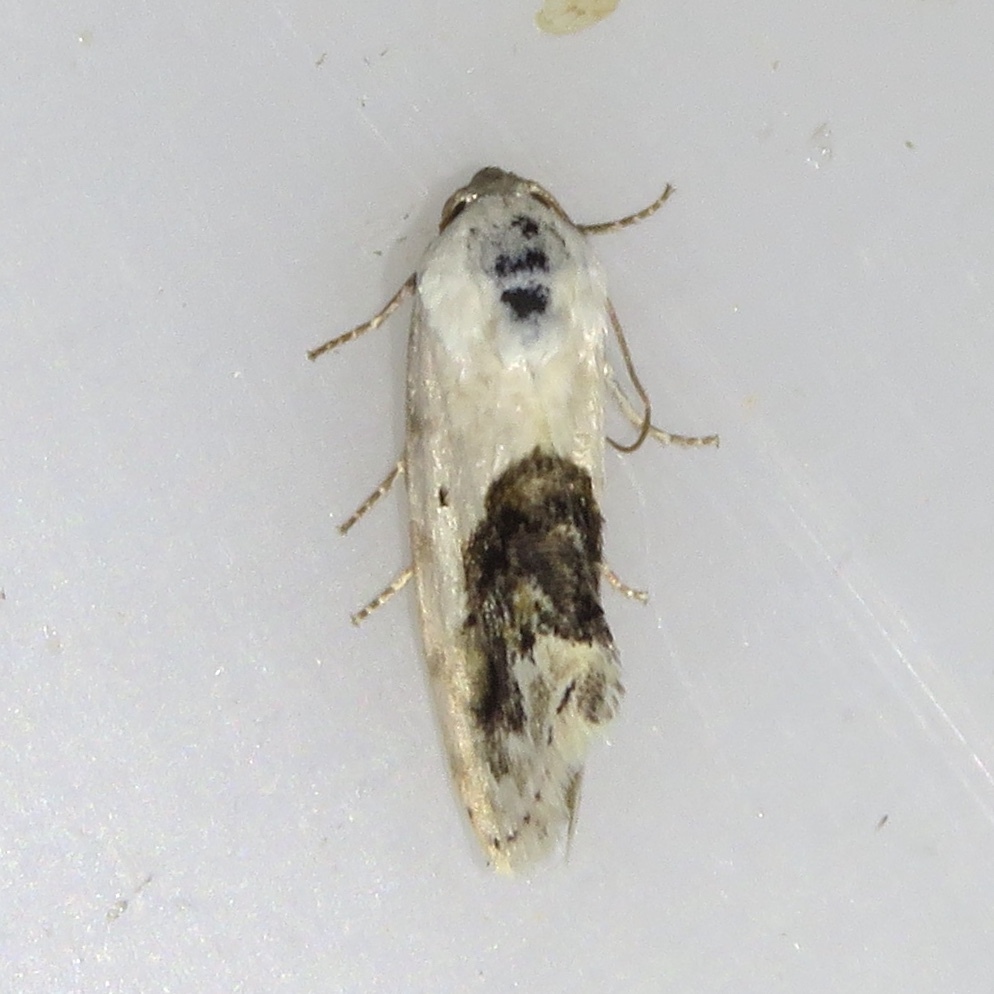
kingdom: Animalia
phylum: Arthropoda
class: Insecta
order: Lepidoptera
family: Noctuidae
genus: Acontia
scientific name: Acontia erastrioides
